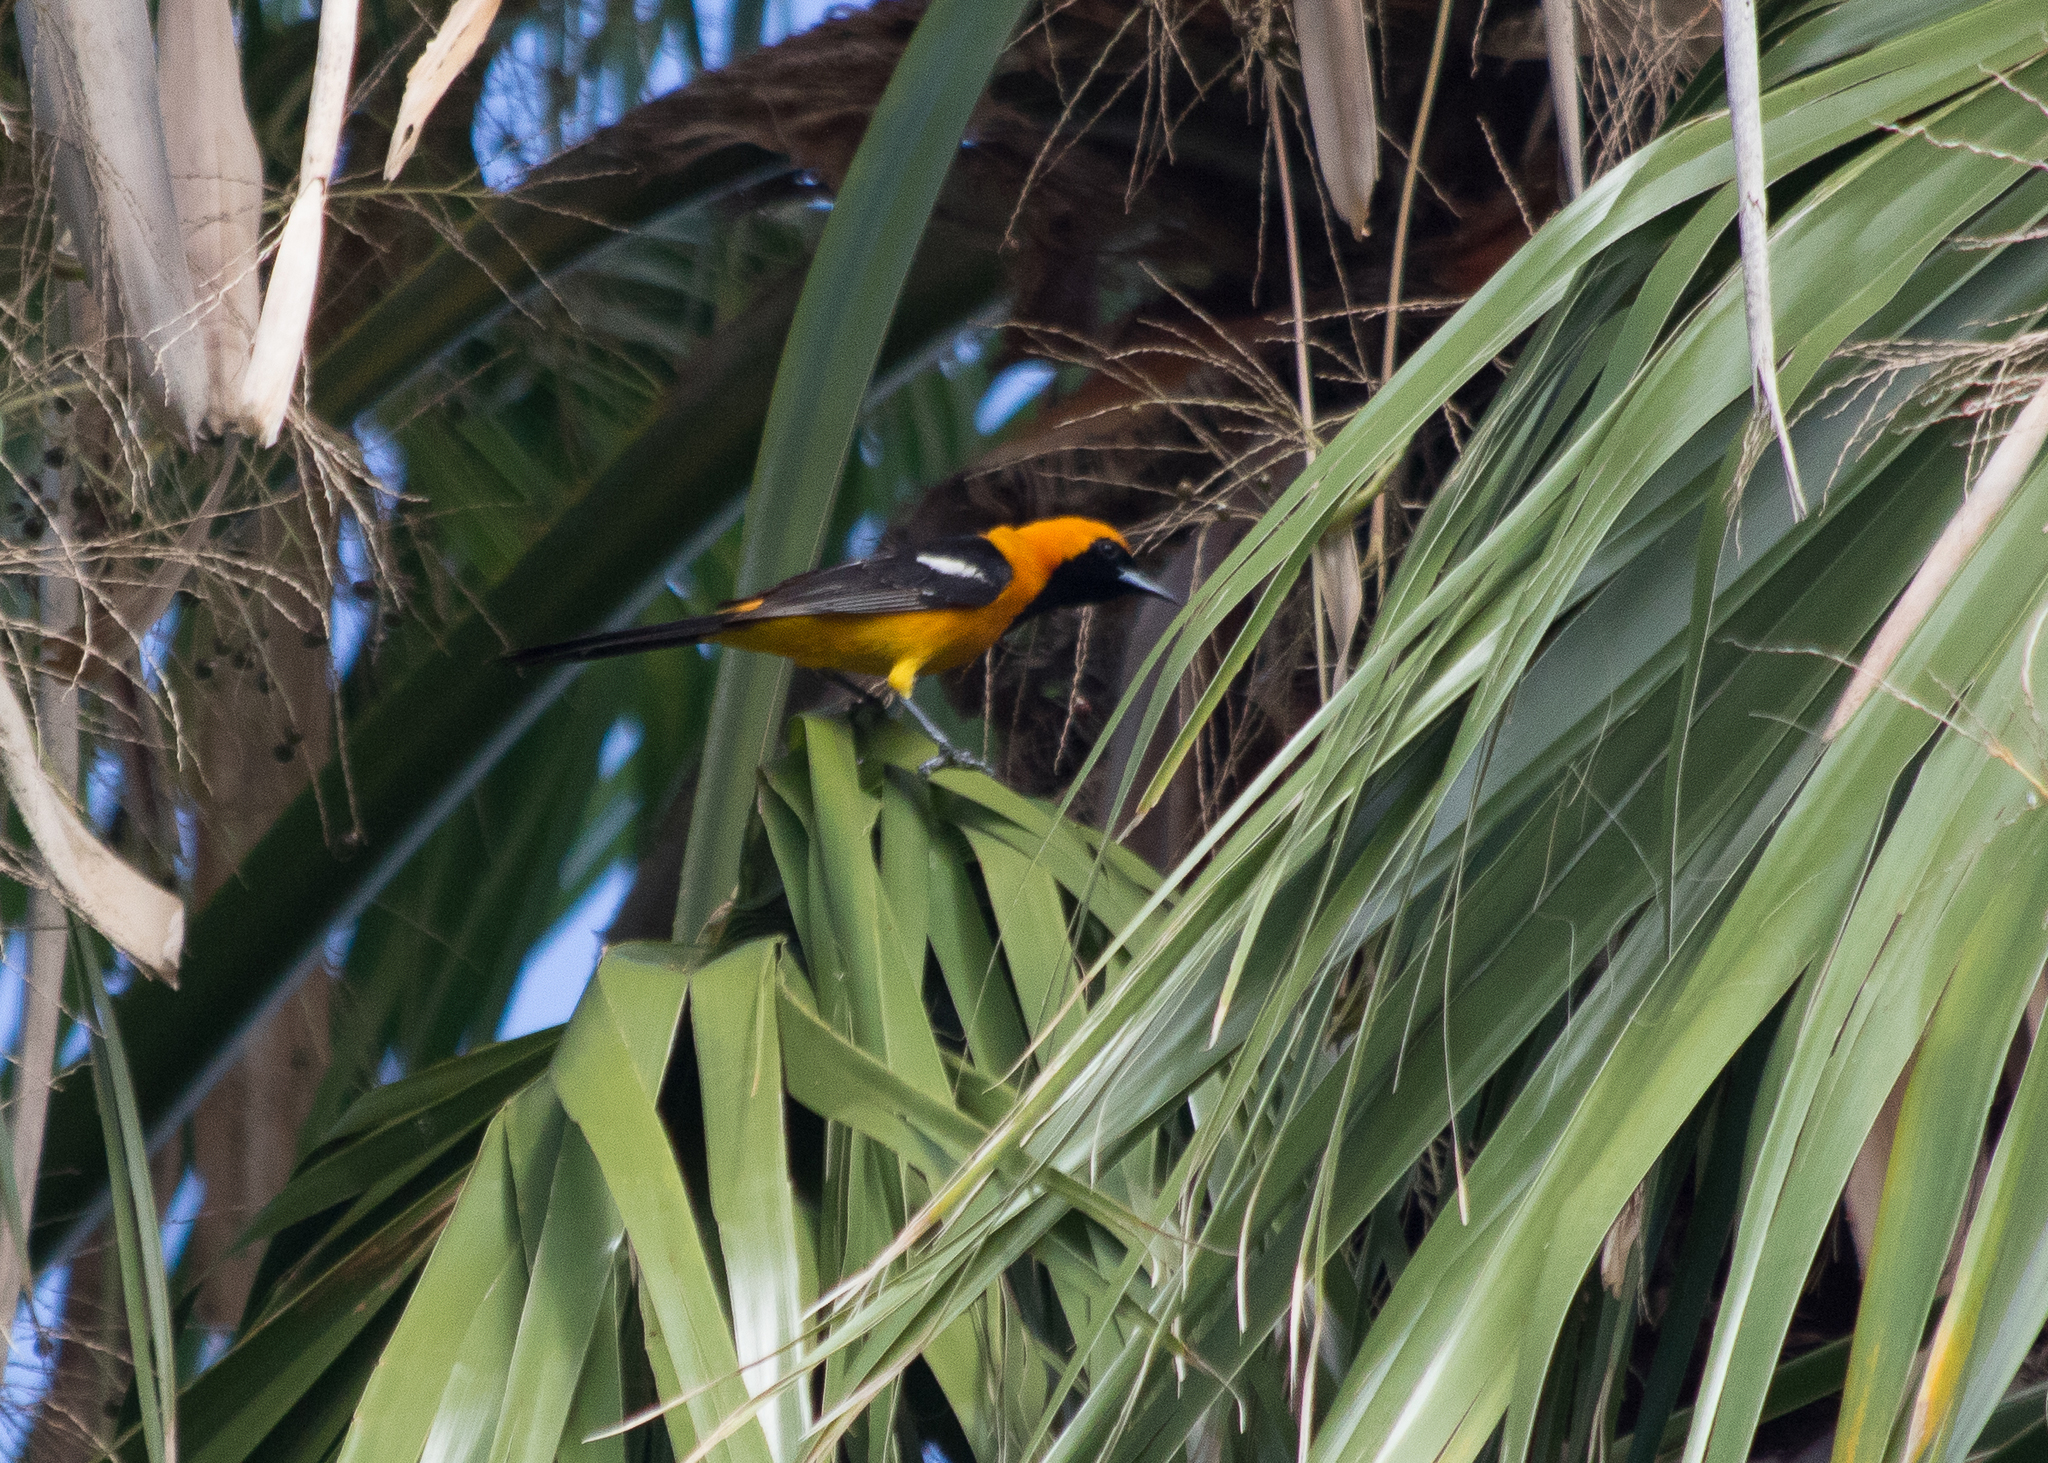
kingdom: Animalia
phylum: Chordata
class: Aves
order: Passeriformes
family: Icteridae
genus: Icterus
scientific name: Icterus cucullatus
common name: Hooded oriole
